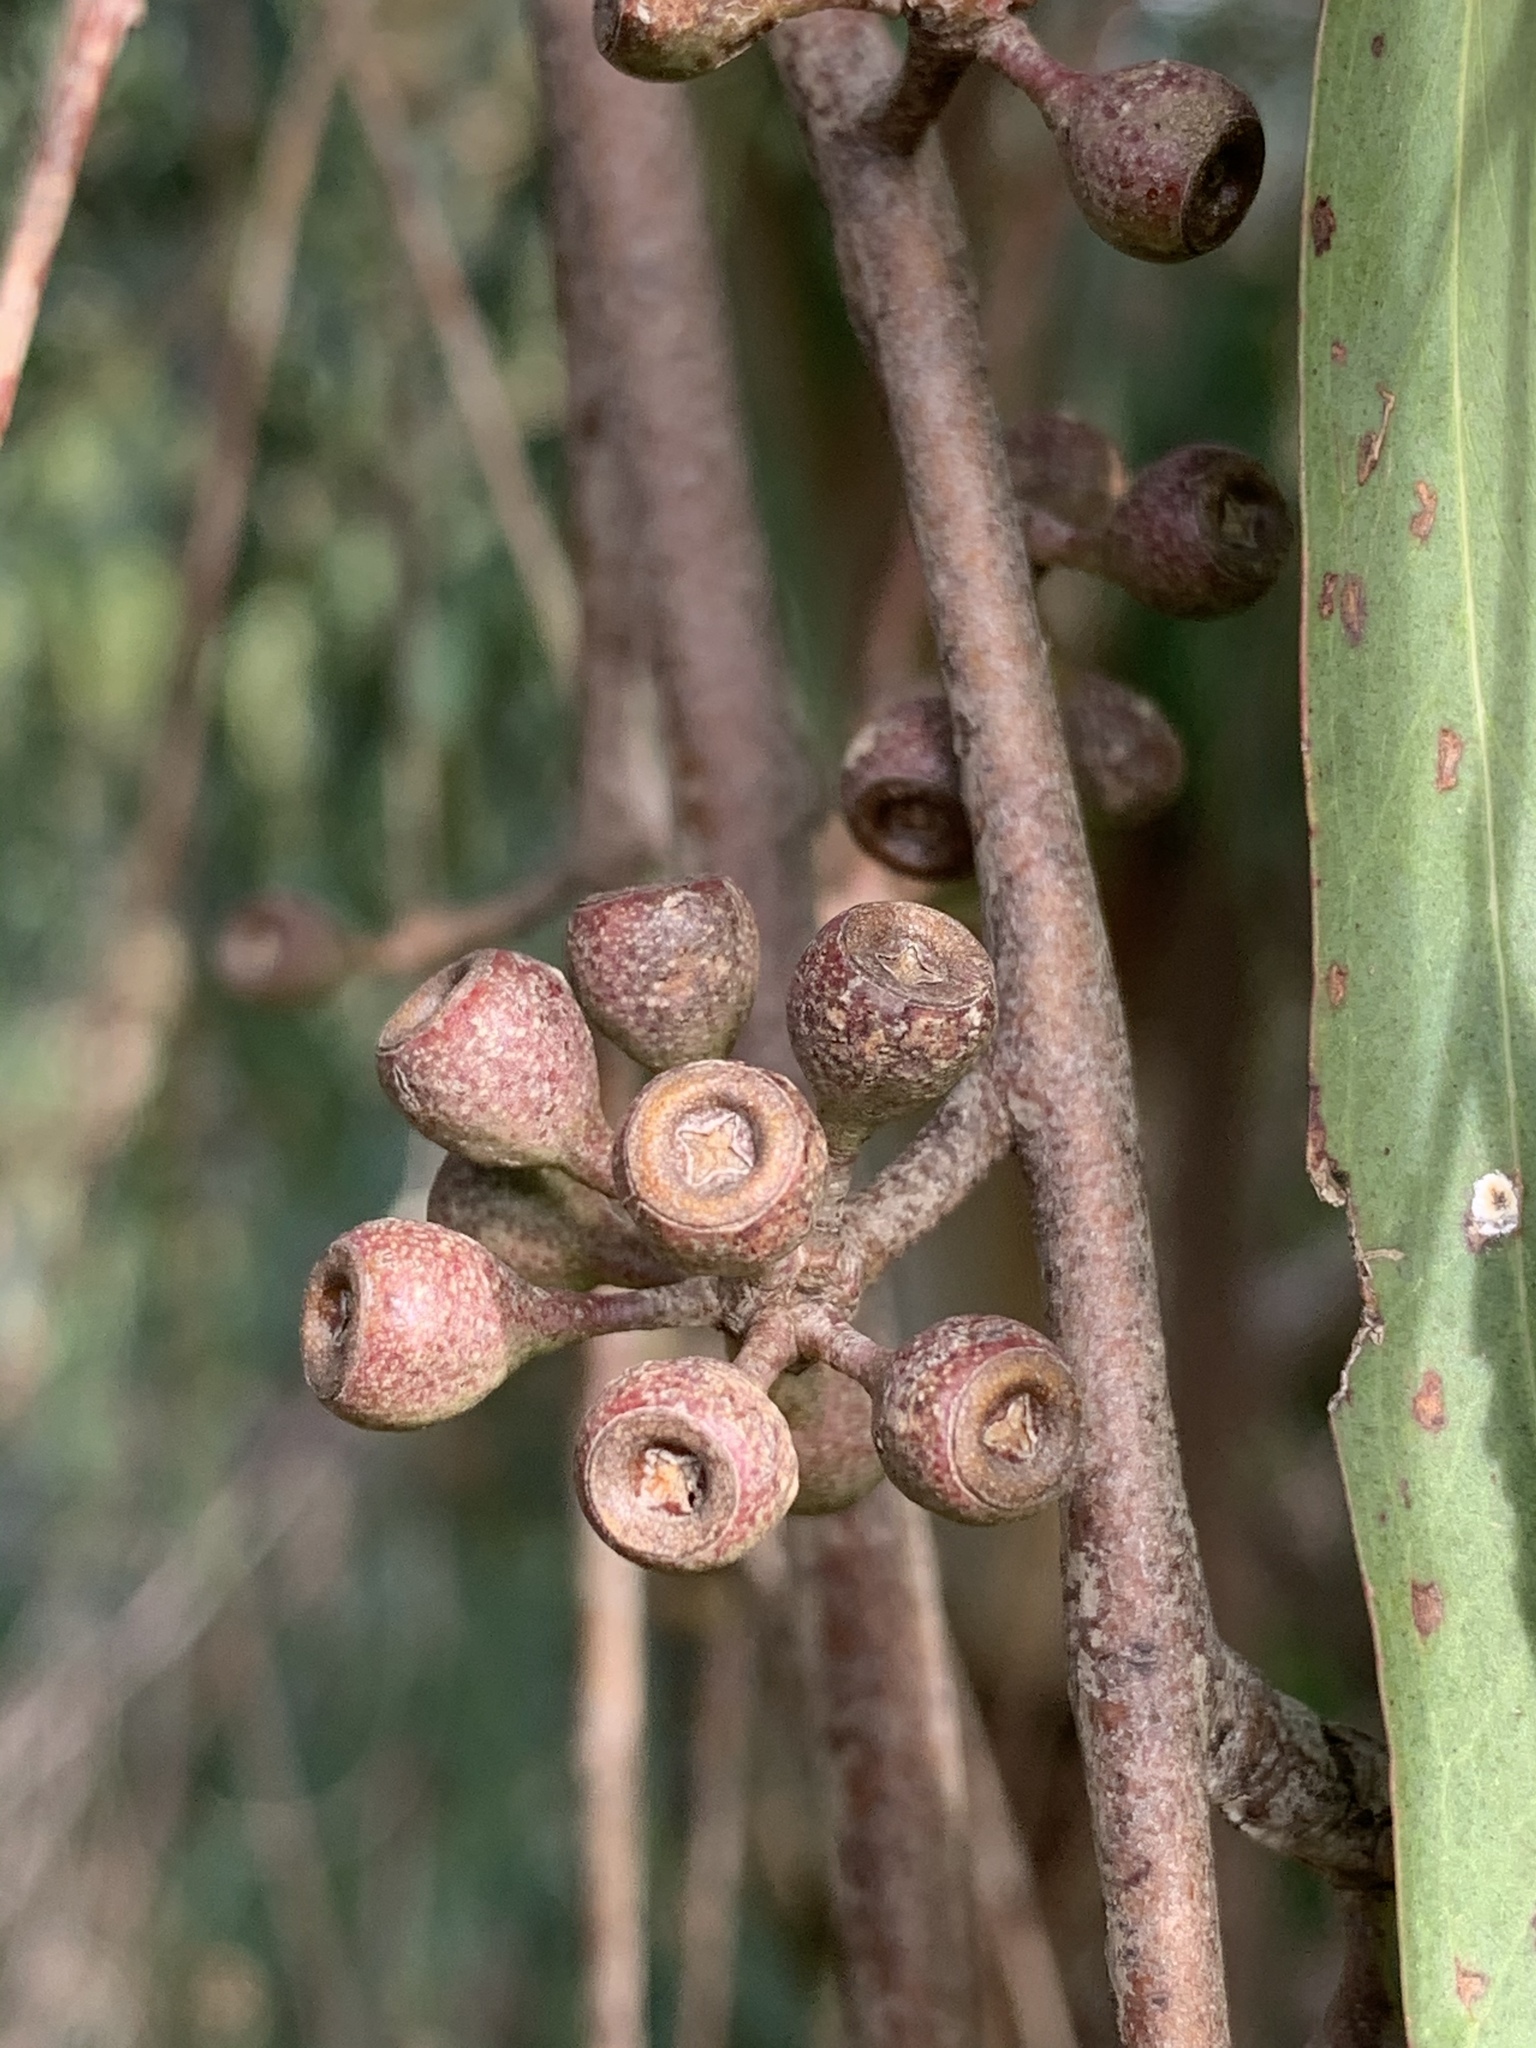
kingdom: Plantae
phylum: Tracheophyta
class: Magnoliopsida
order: Myrtales
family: Myrtaceae
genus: Eucalyptus
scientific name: Eucalyptus elata
